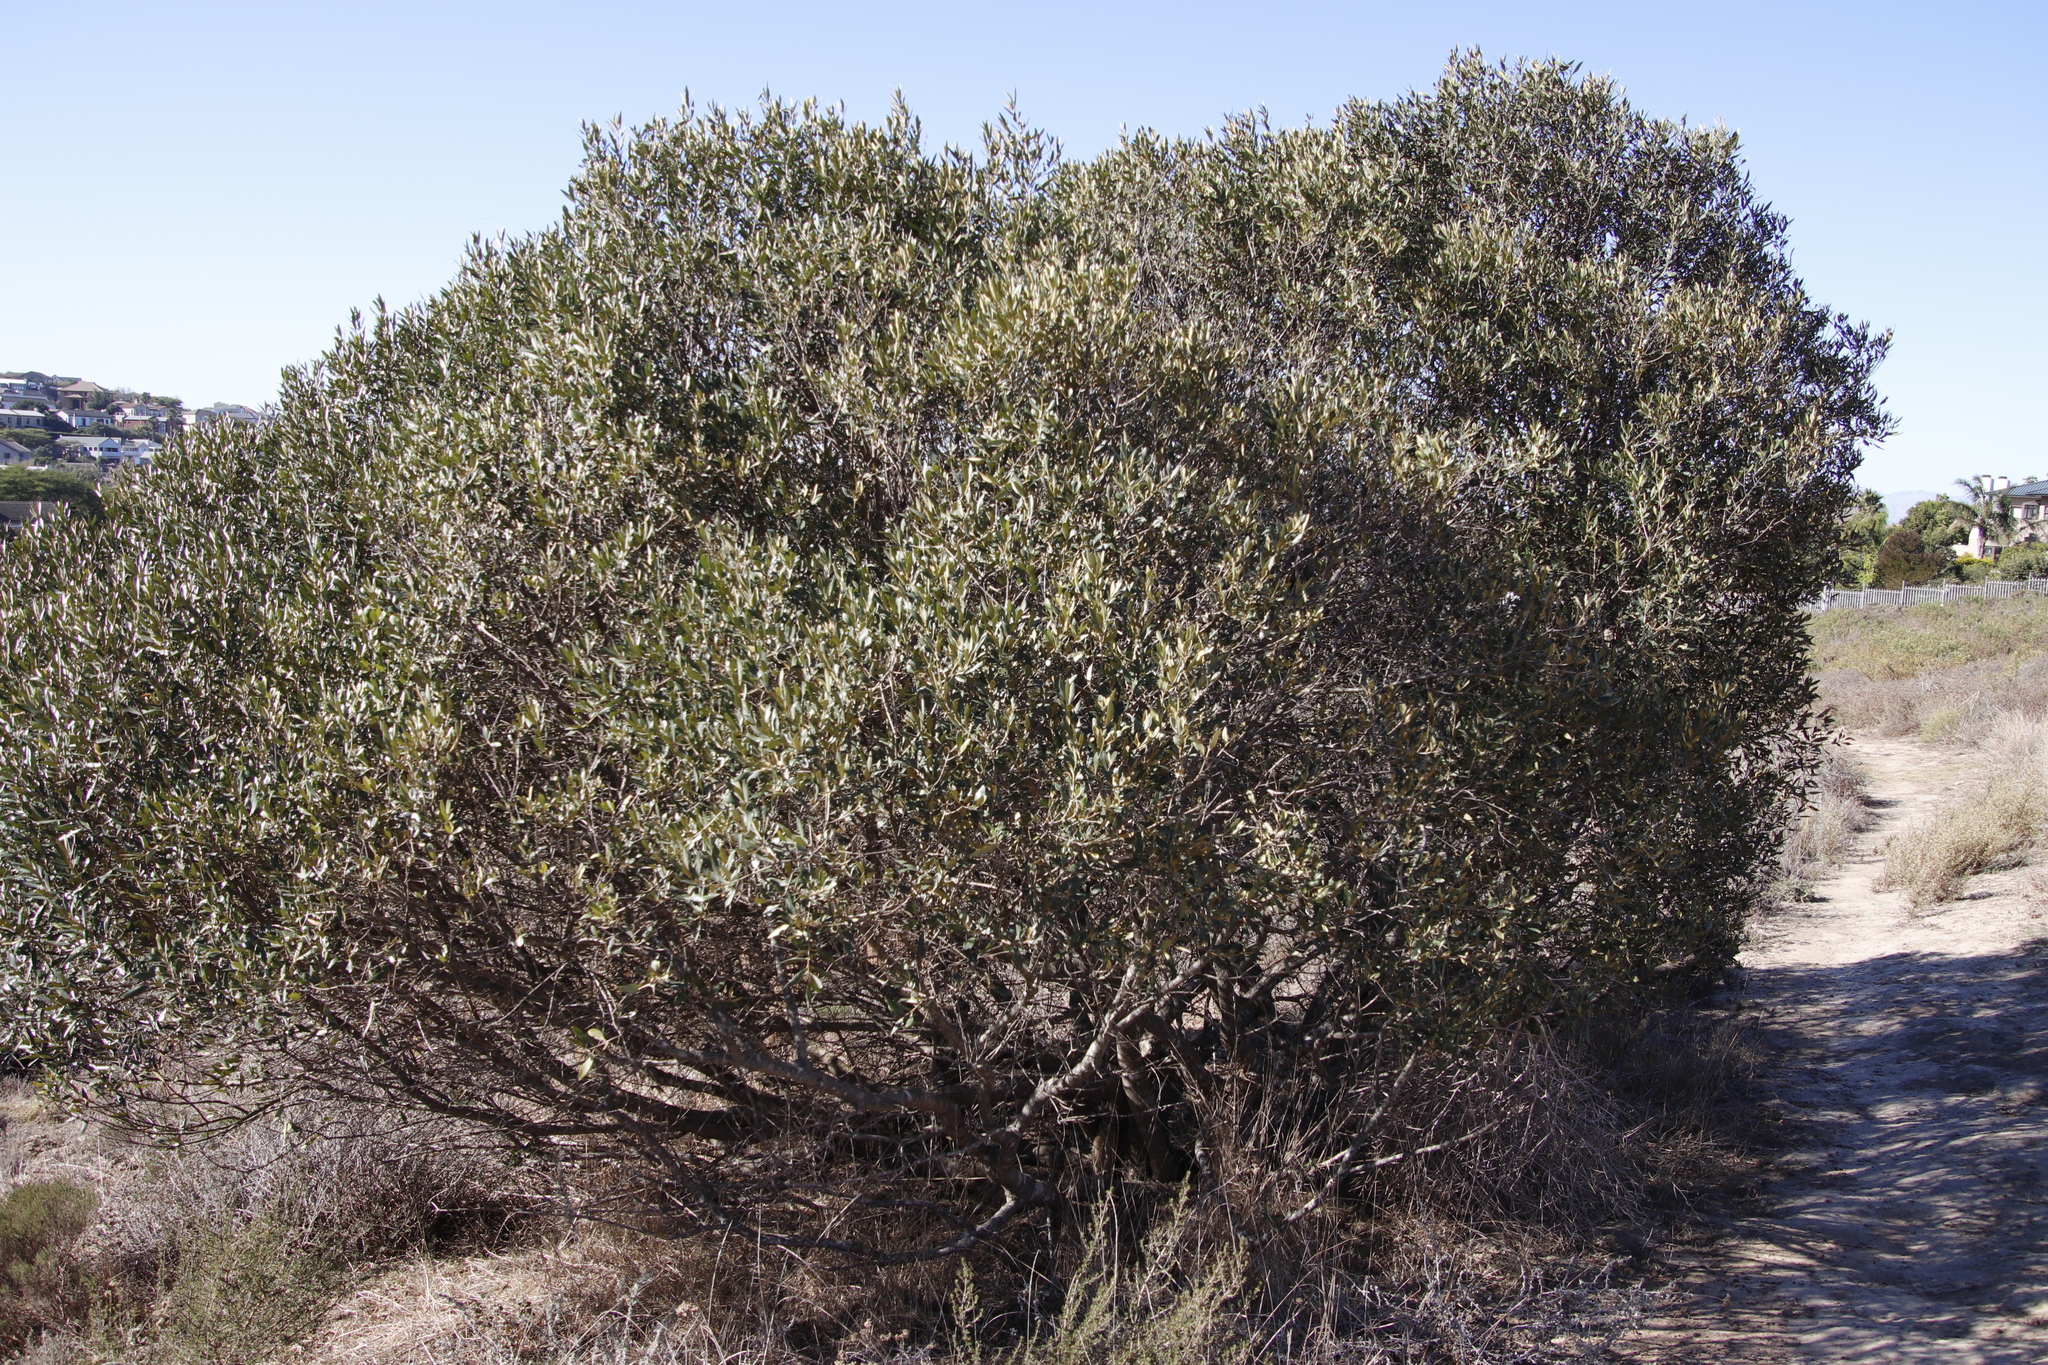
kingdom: Plantae
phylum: Tracheophyta
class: Magnoliopsida
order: Lamiales
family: Oleaceae
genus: Olea
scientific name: Olea europaea
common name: Olive
